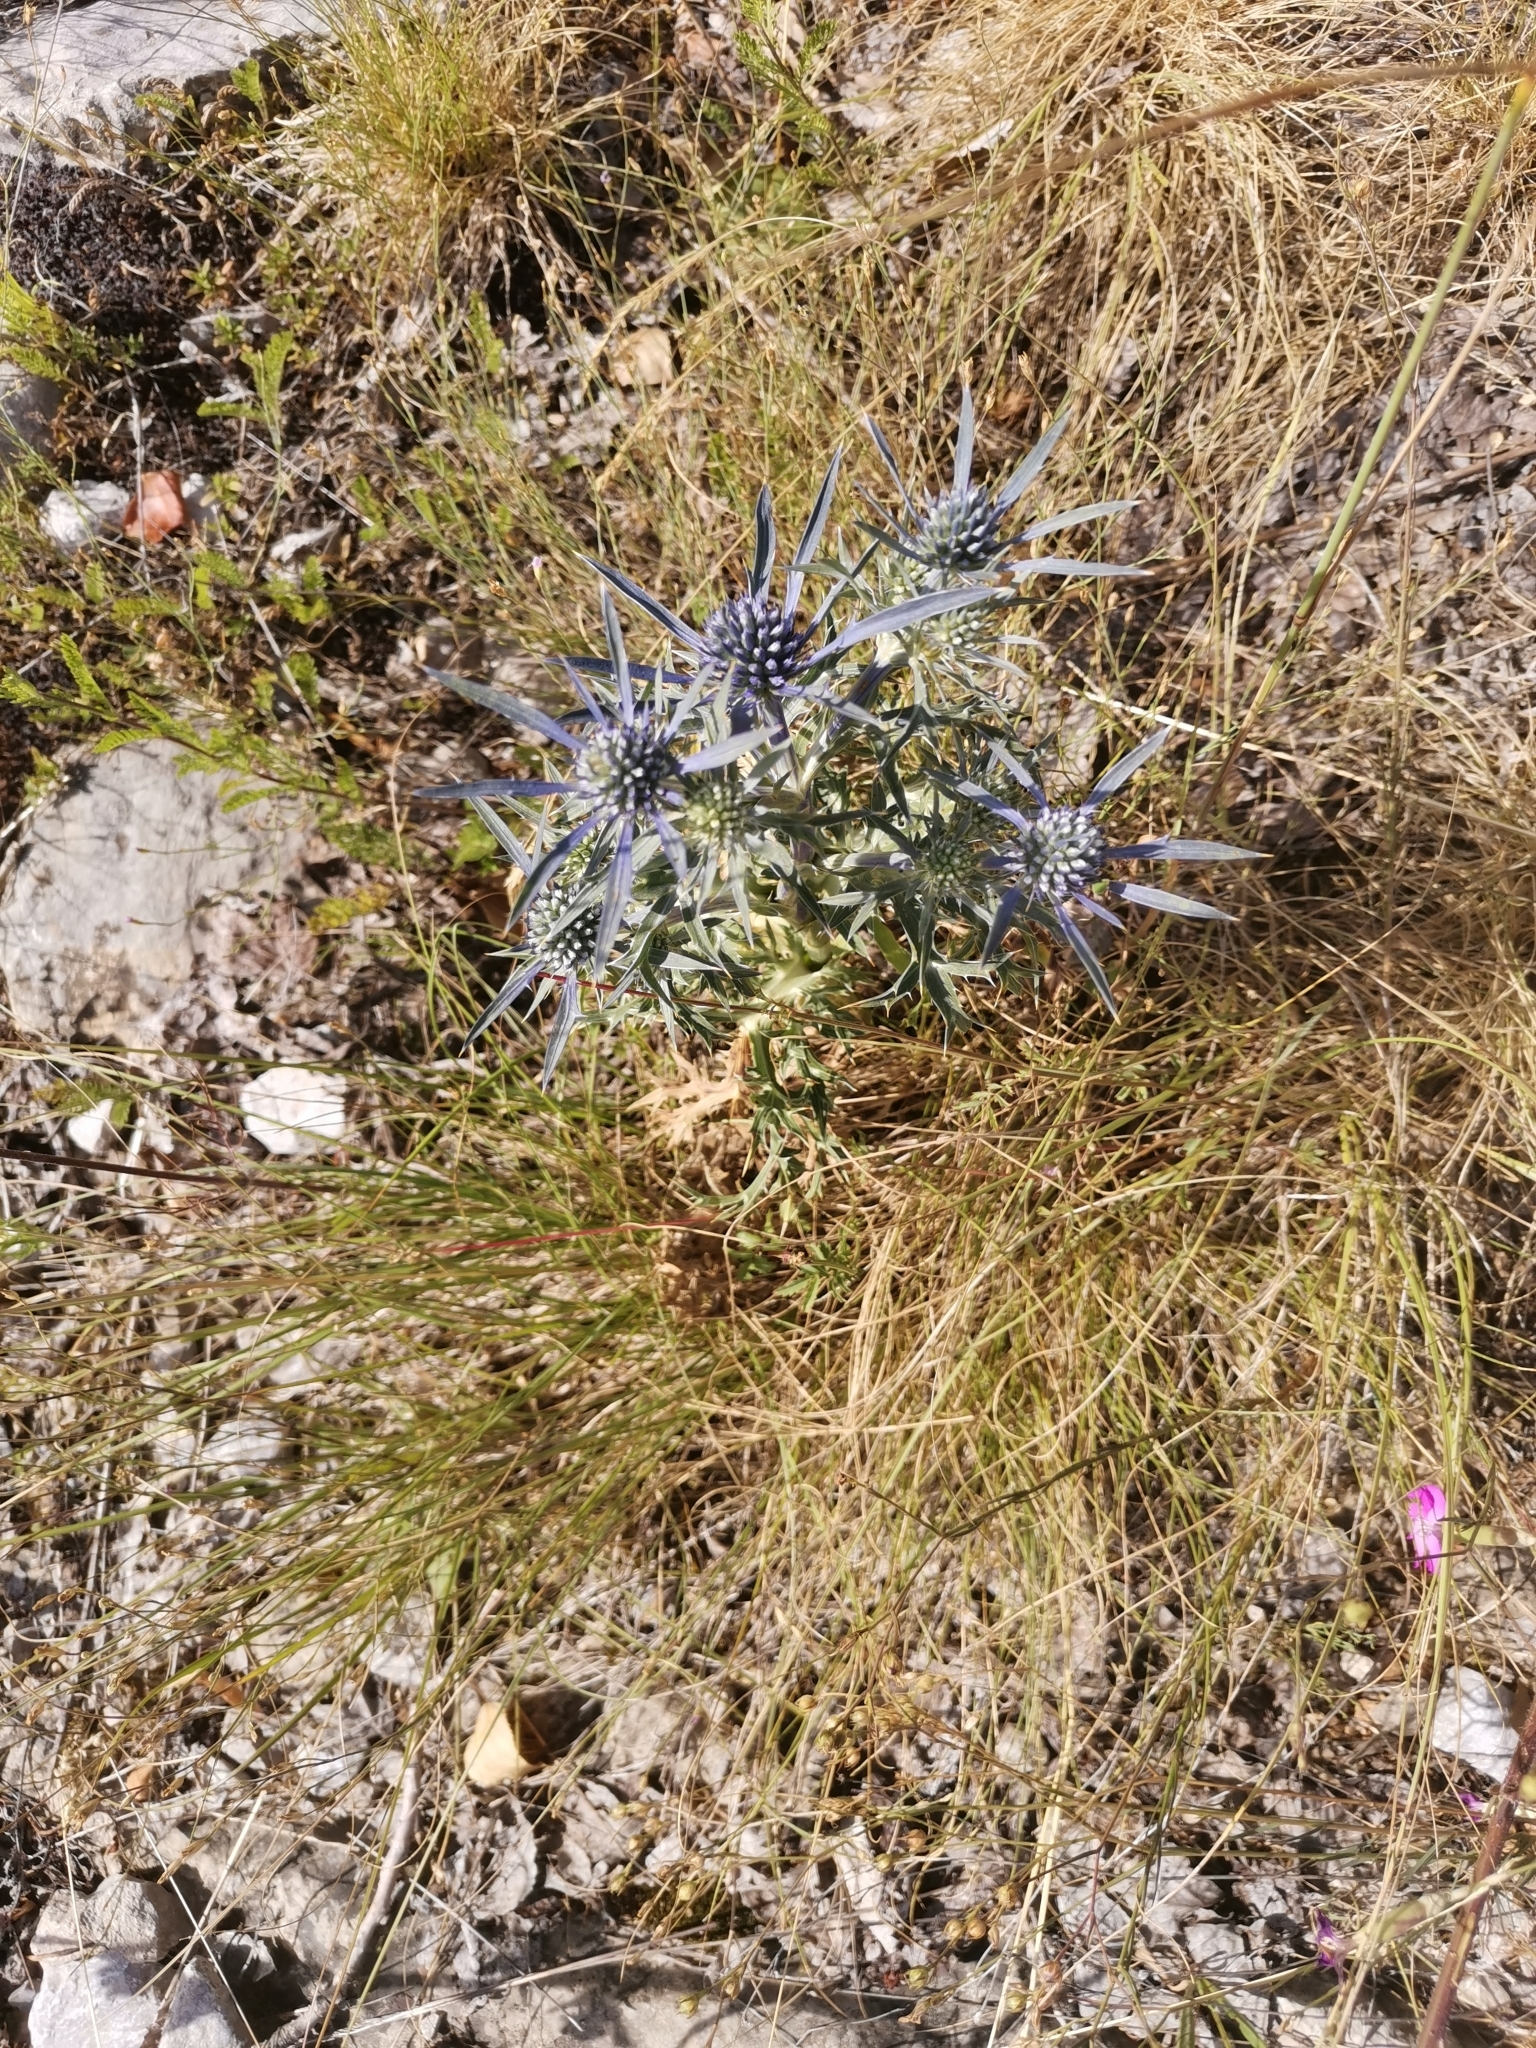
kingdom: Plantae
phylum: Tracheophyta
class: Magnoliopsida
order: Apiales
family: Apiaceae
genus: Eryngium
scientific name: Eryngium amethystinum
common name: Amethyst eryngo
